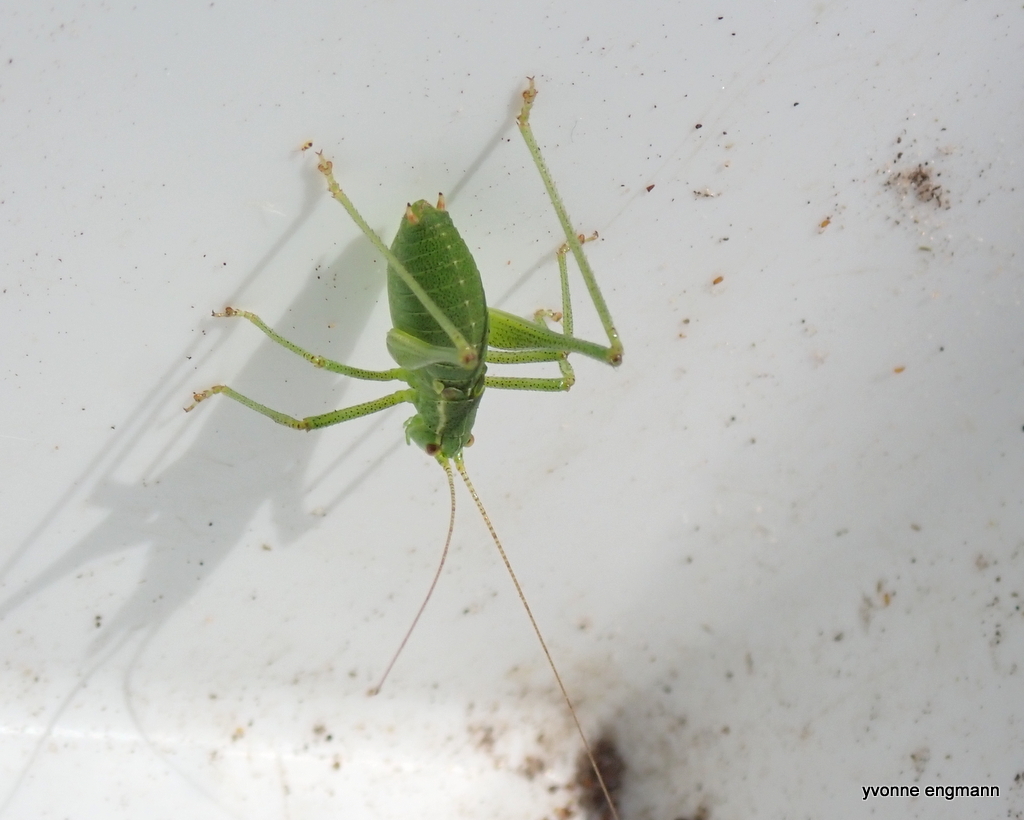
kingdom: Animalia
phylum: Arthropoda
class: Insecta
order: Orthoptera
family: Tettigoniidae
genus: Leptophyes
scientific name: Leptophyes punctatissima
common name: Speckled bush-cricket
